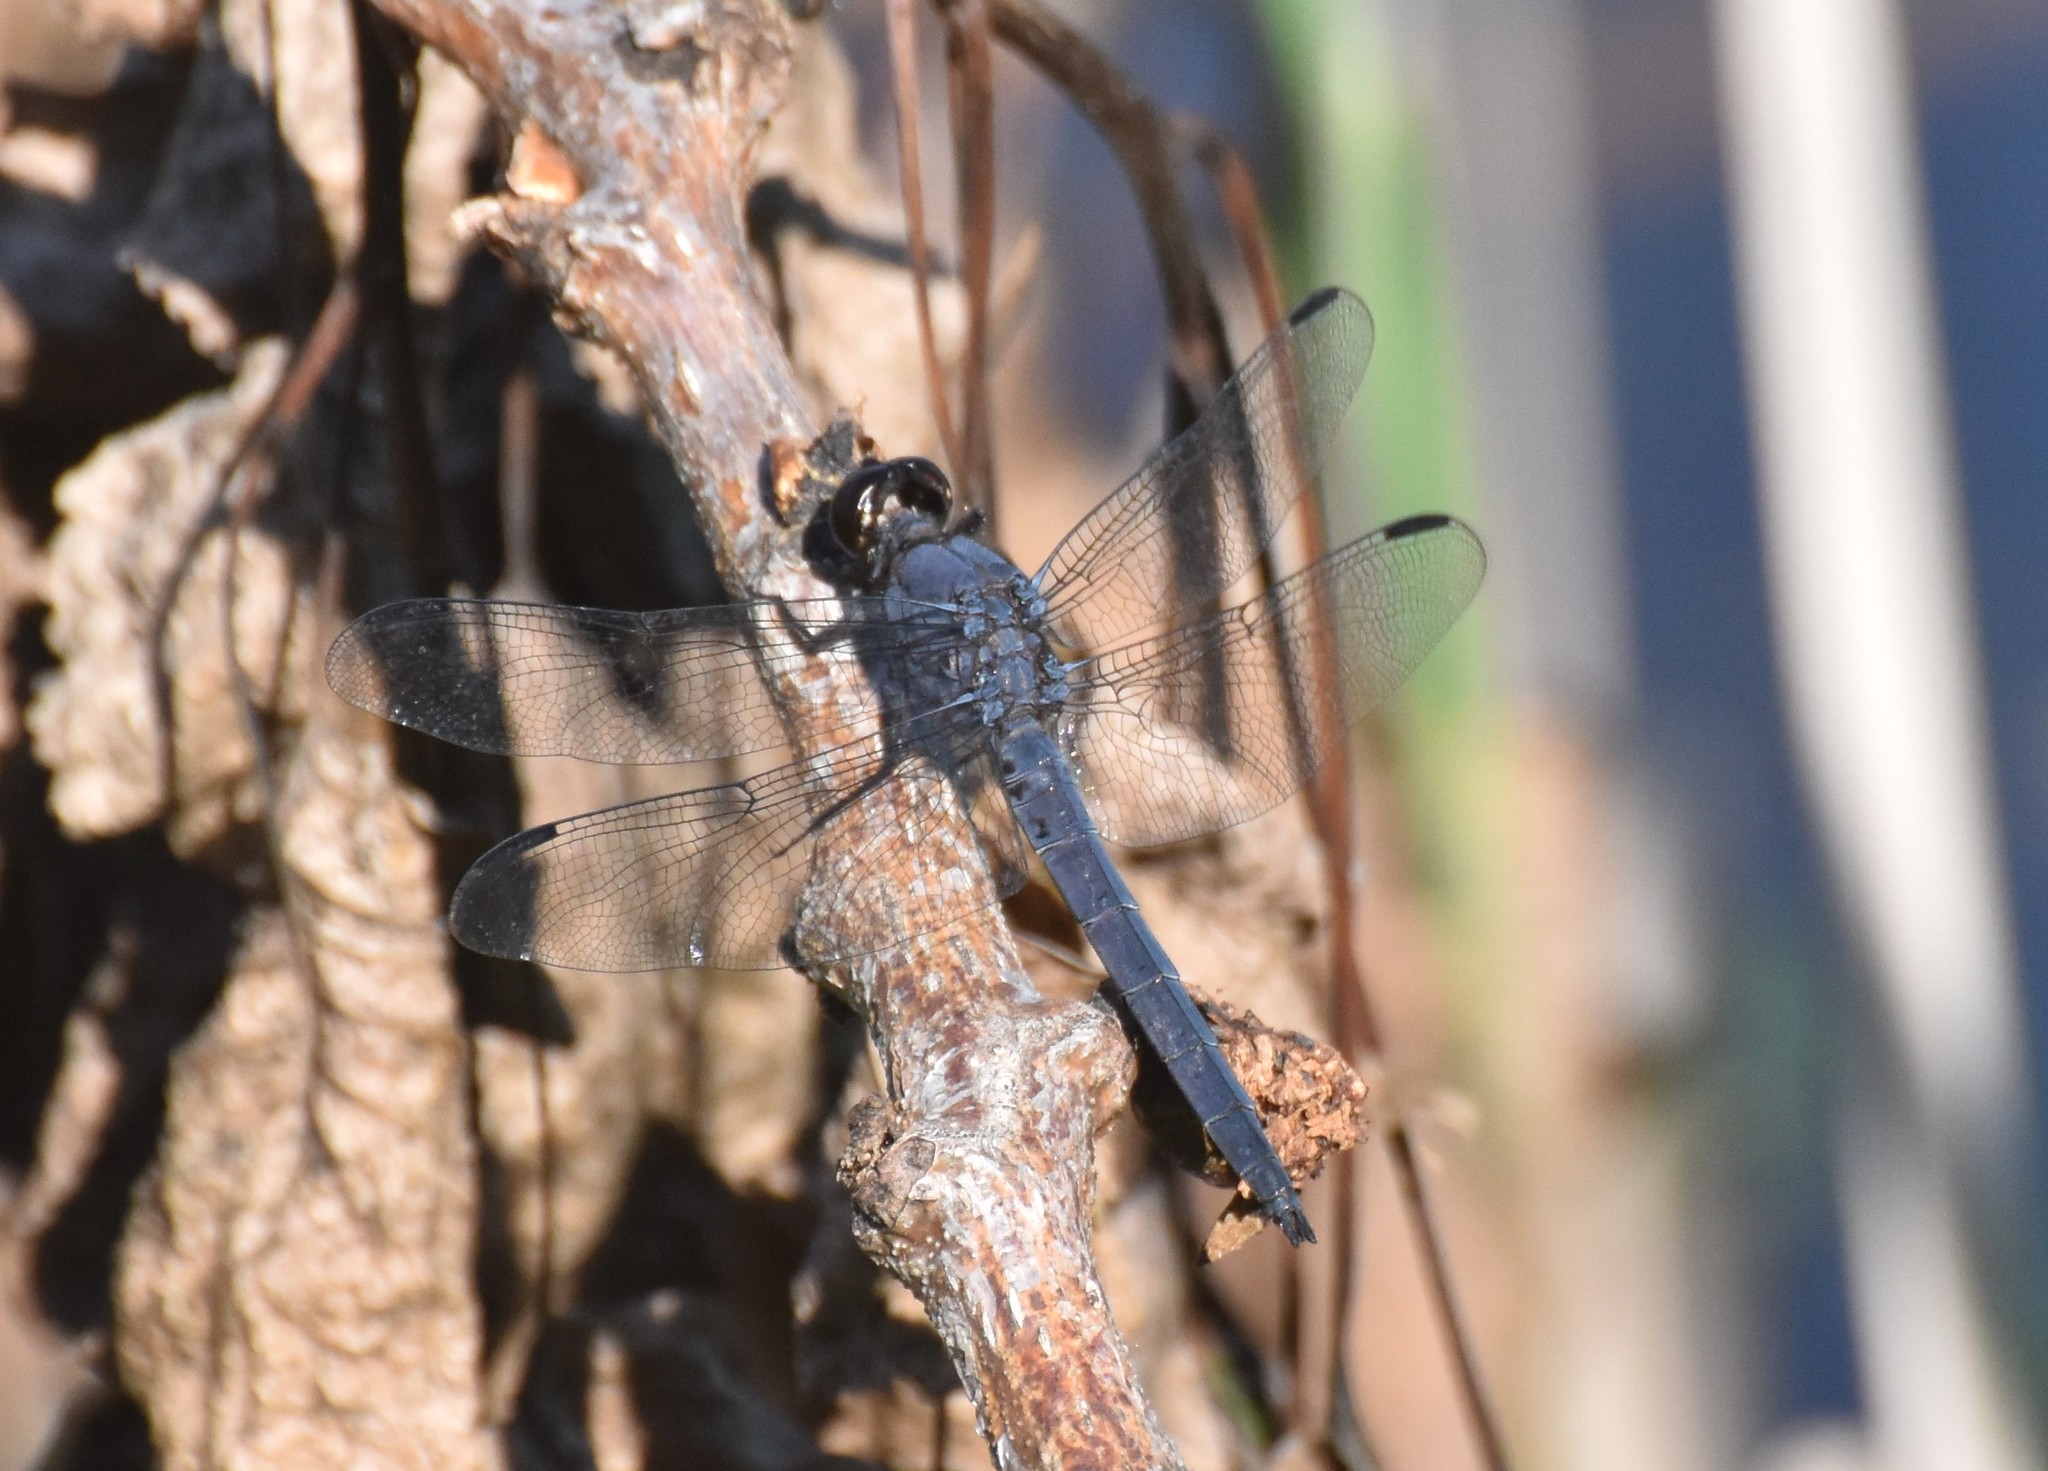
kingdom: Animalia
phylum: Arthropoda
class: Insecta
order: Odonata
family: Libellulidae
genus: Libellula
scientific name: Libellula incesta
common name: Slaty skimmer
